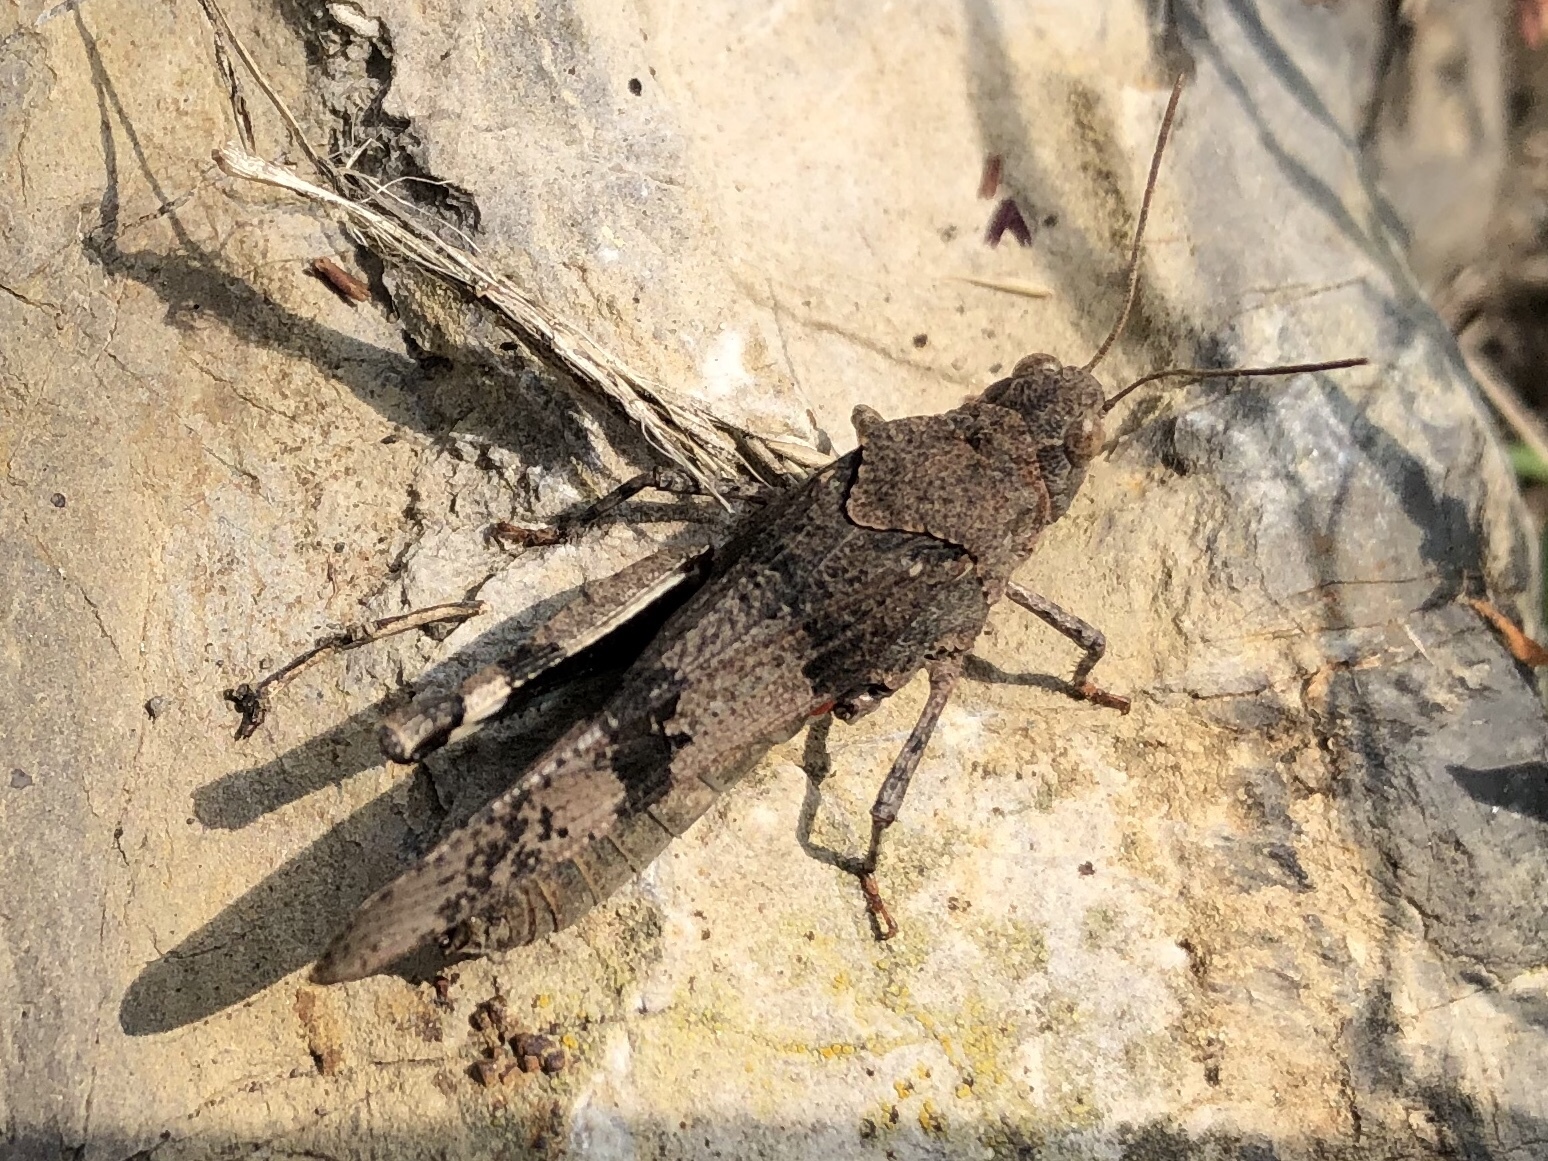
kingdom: Animalia
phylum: Arthropoda
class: Insecta
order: Orthoptera
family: Acrididae
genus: Oedipoda
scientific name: Oedipoda caerulescens
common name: Blue-winged grasshopper
